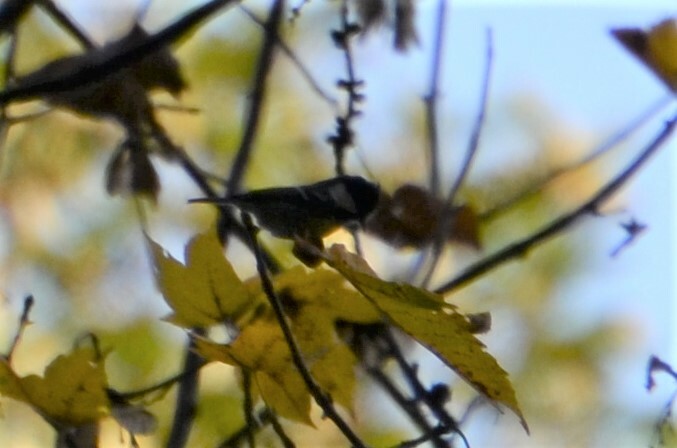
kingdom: Animalia
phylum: Chordata
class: Aves
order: Passeriformes
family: Paridae
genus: Periparus
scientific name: Periparus ater
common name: Coal tit
